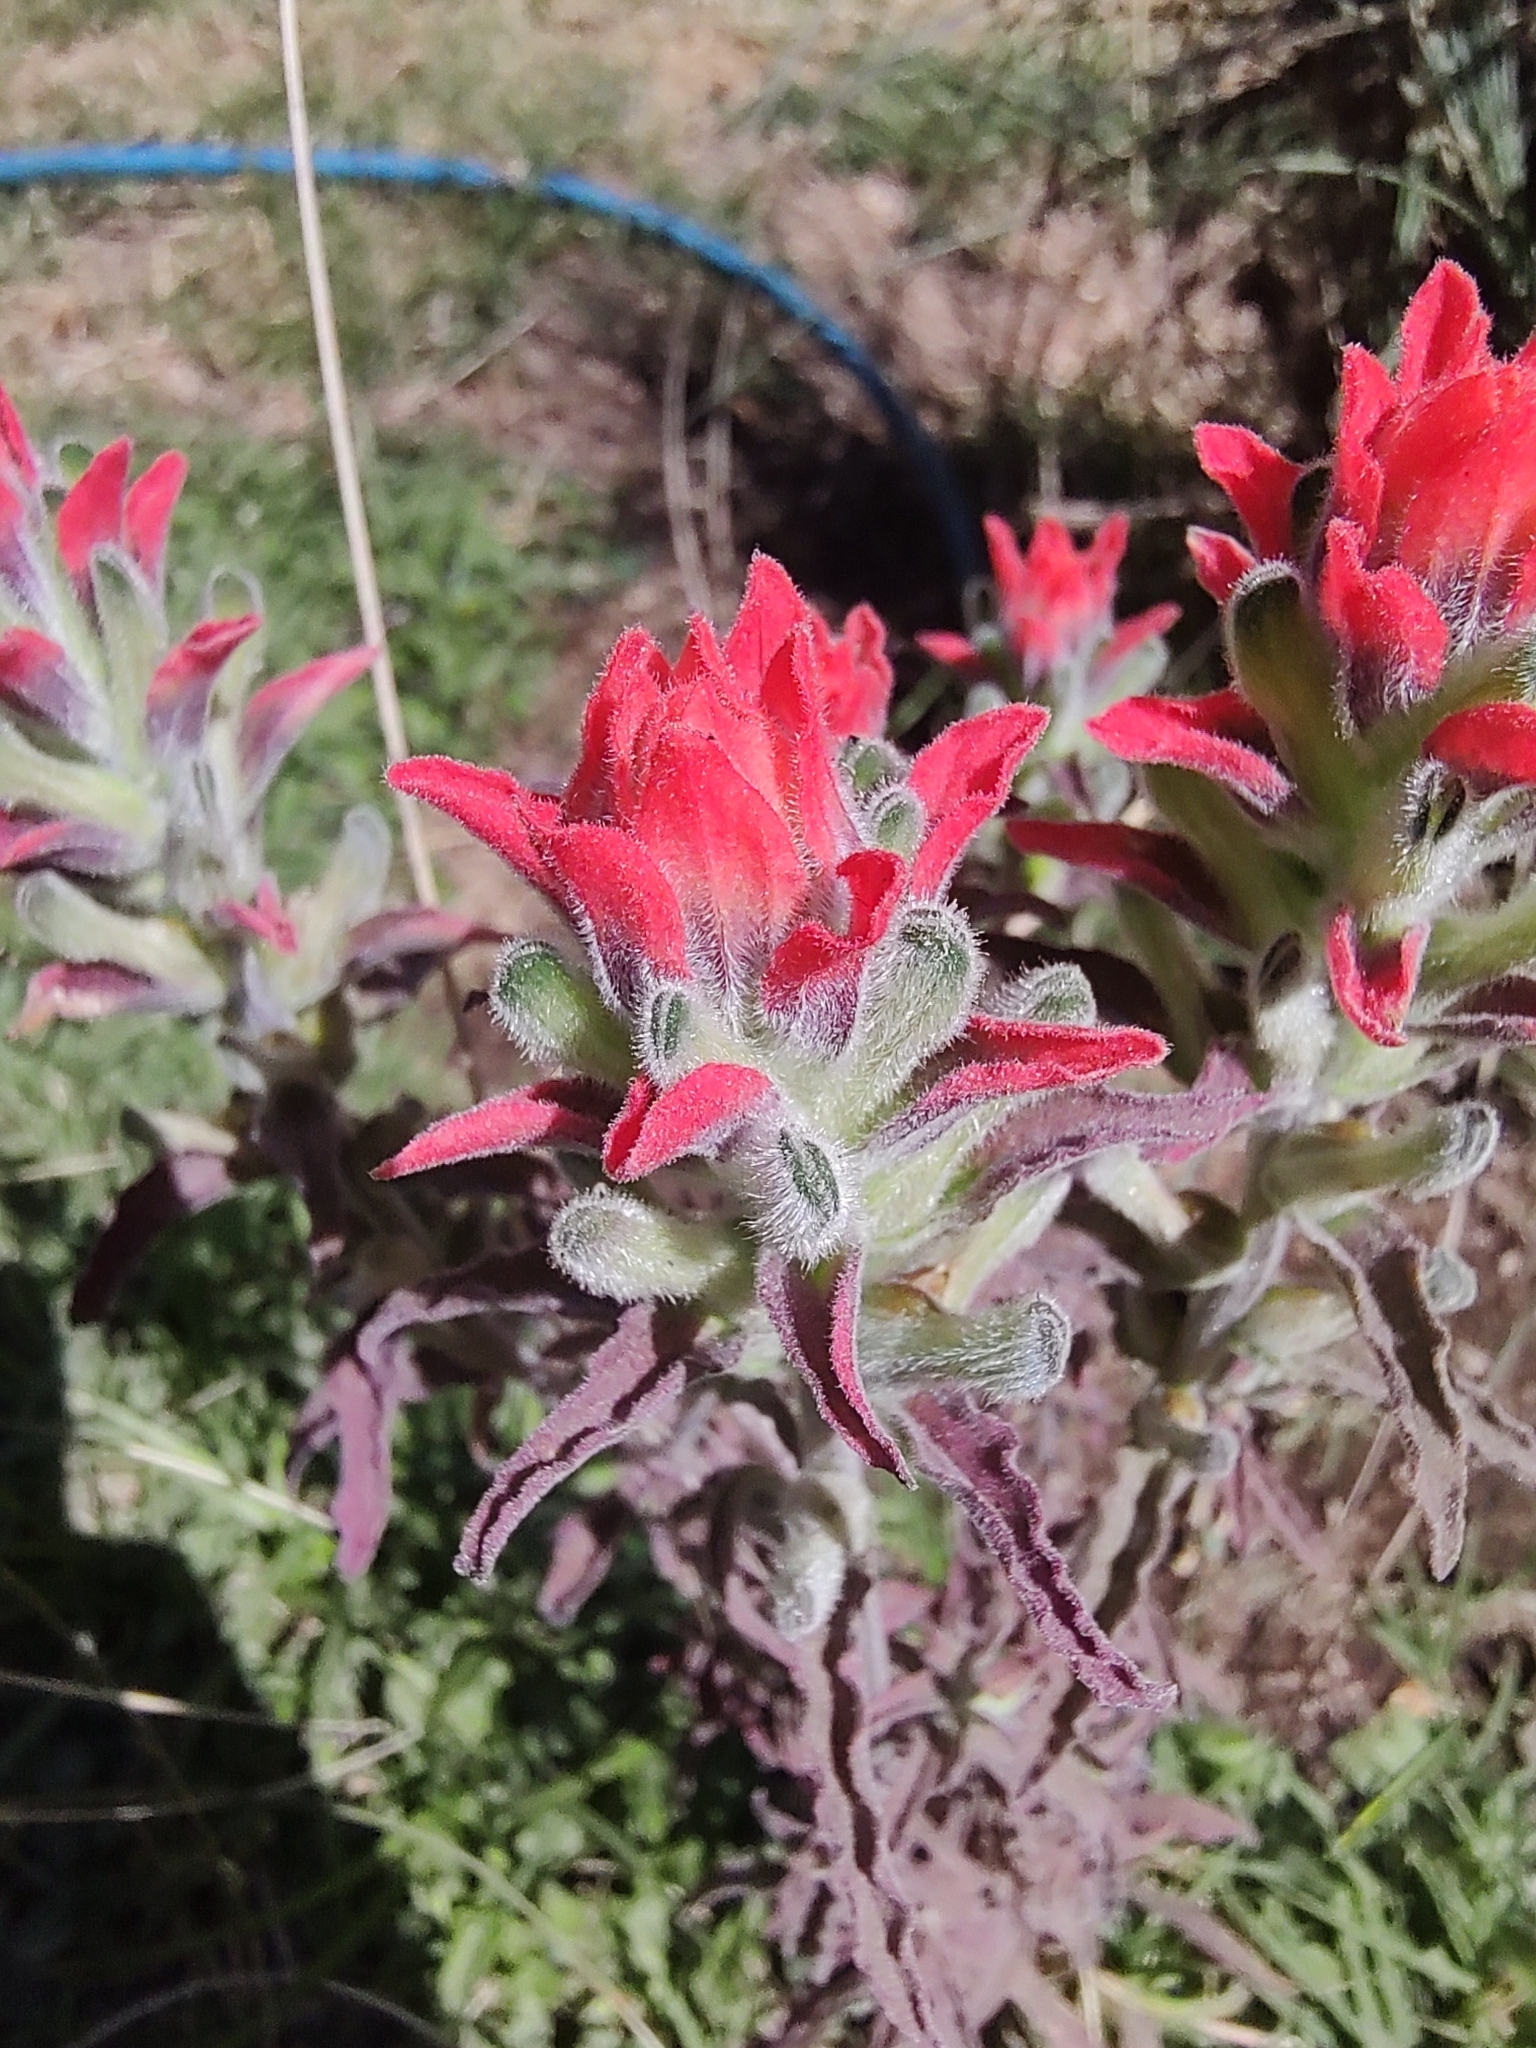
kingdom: Plantae
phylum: Tracheophyta
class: Magnoliopsida
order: Lamiales
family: Orobanchaceae
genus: Castilleja
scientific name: Castilleja arvensis
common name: Indian paintbrush
